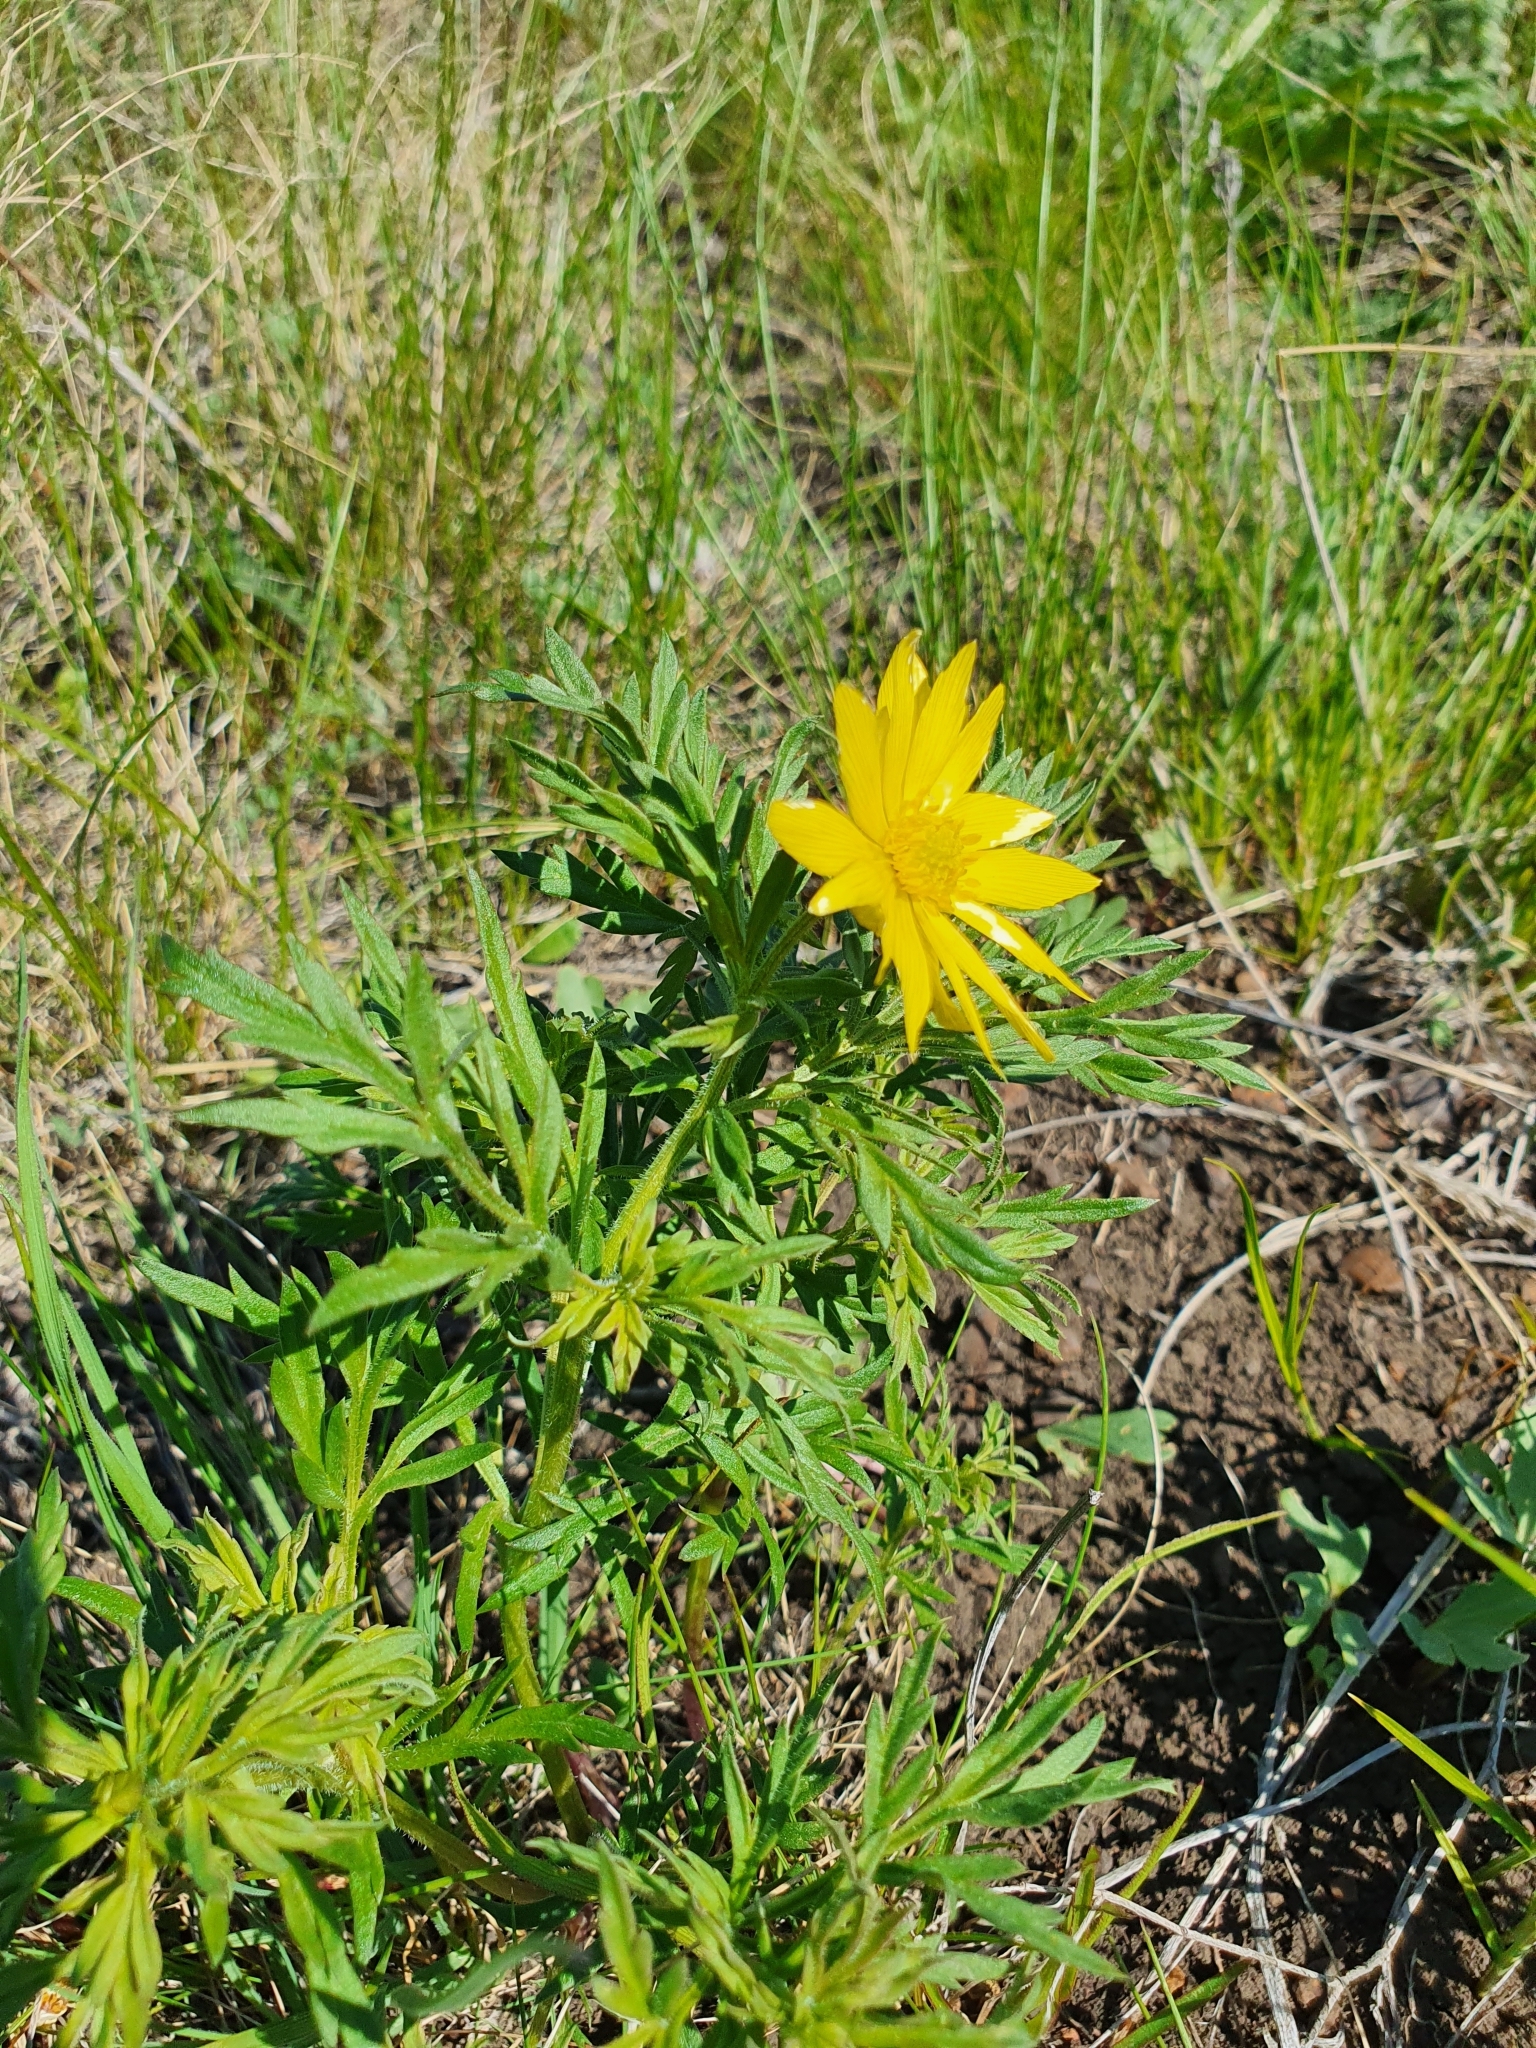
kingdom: Plantae
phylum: Tracheophyta
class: Magnoliopsida
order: Ranunculales
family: Ranunculaceae
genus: Adonis
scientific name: Adonis volgensis
